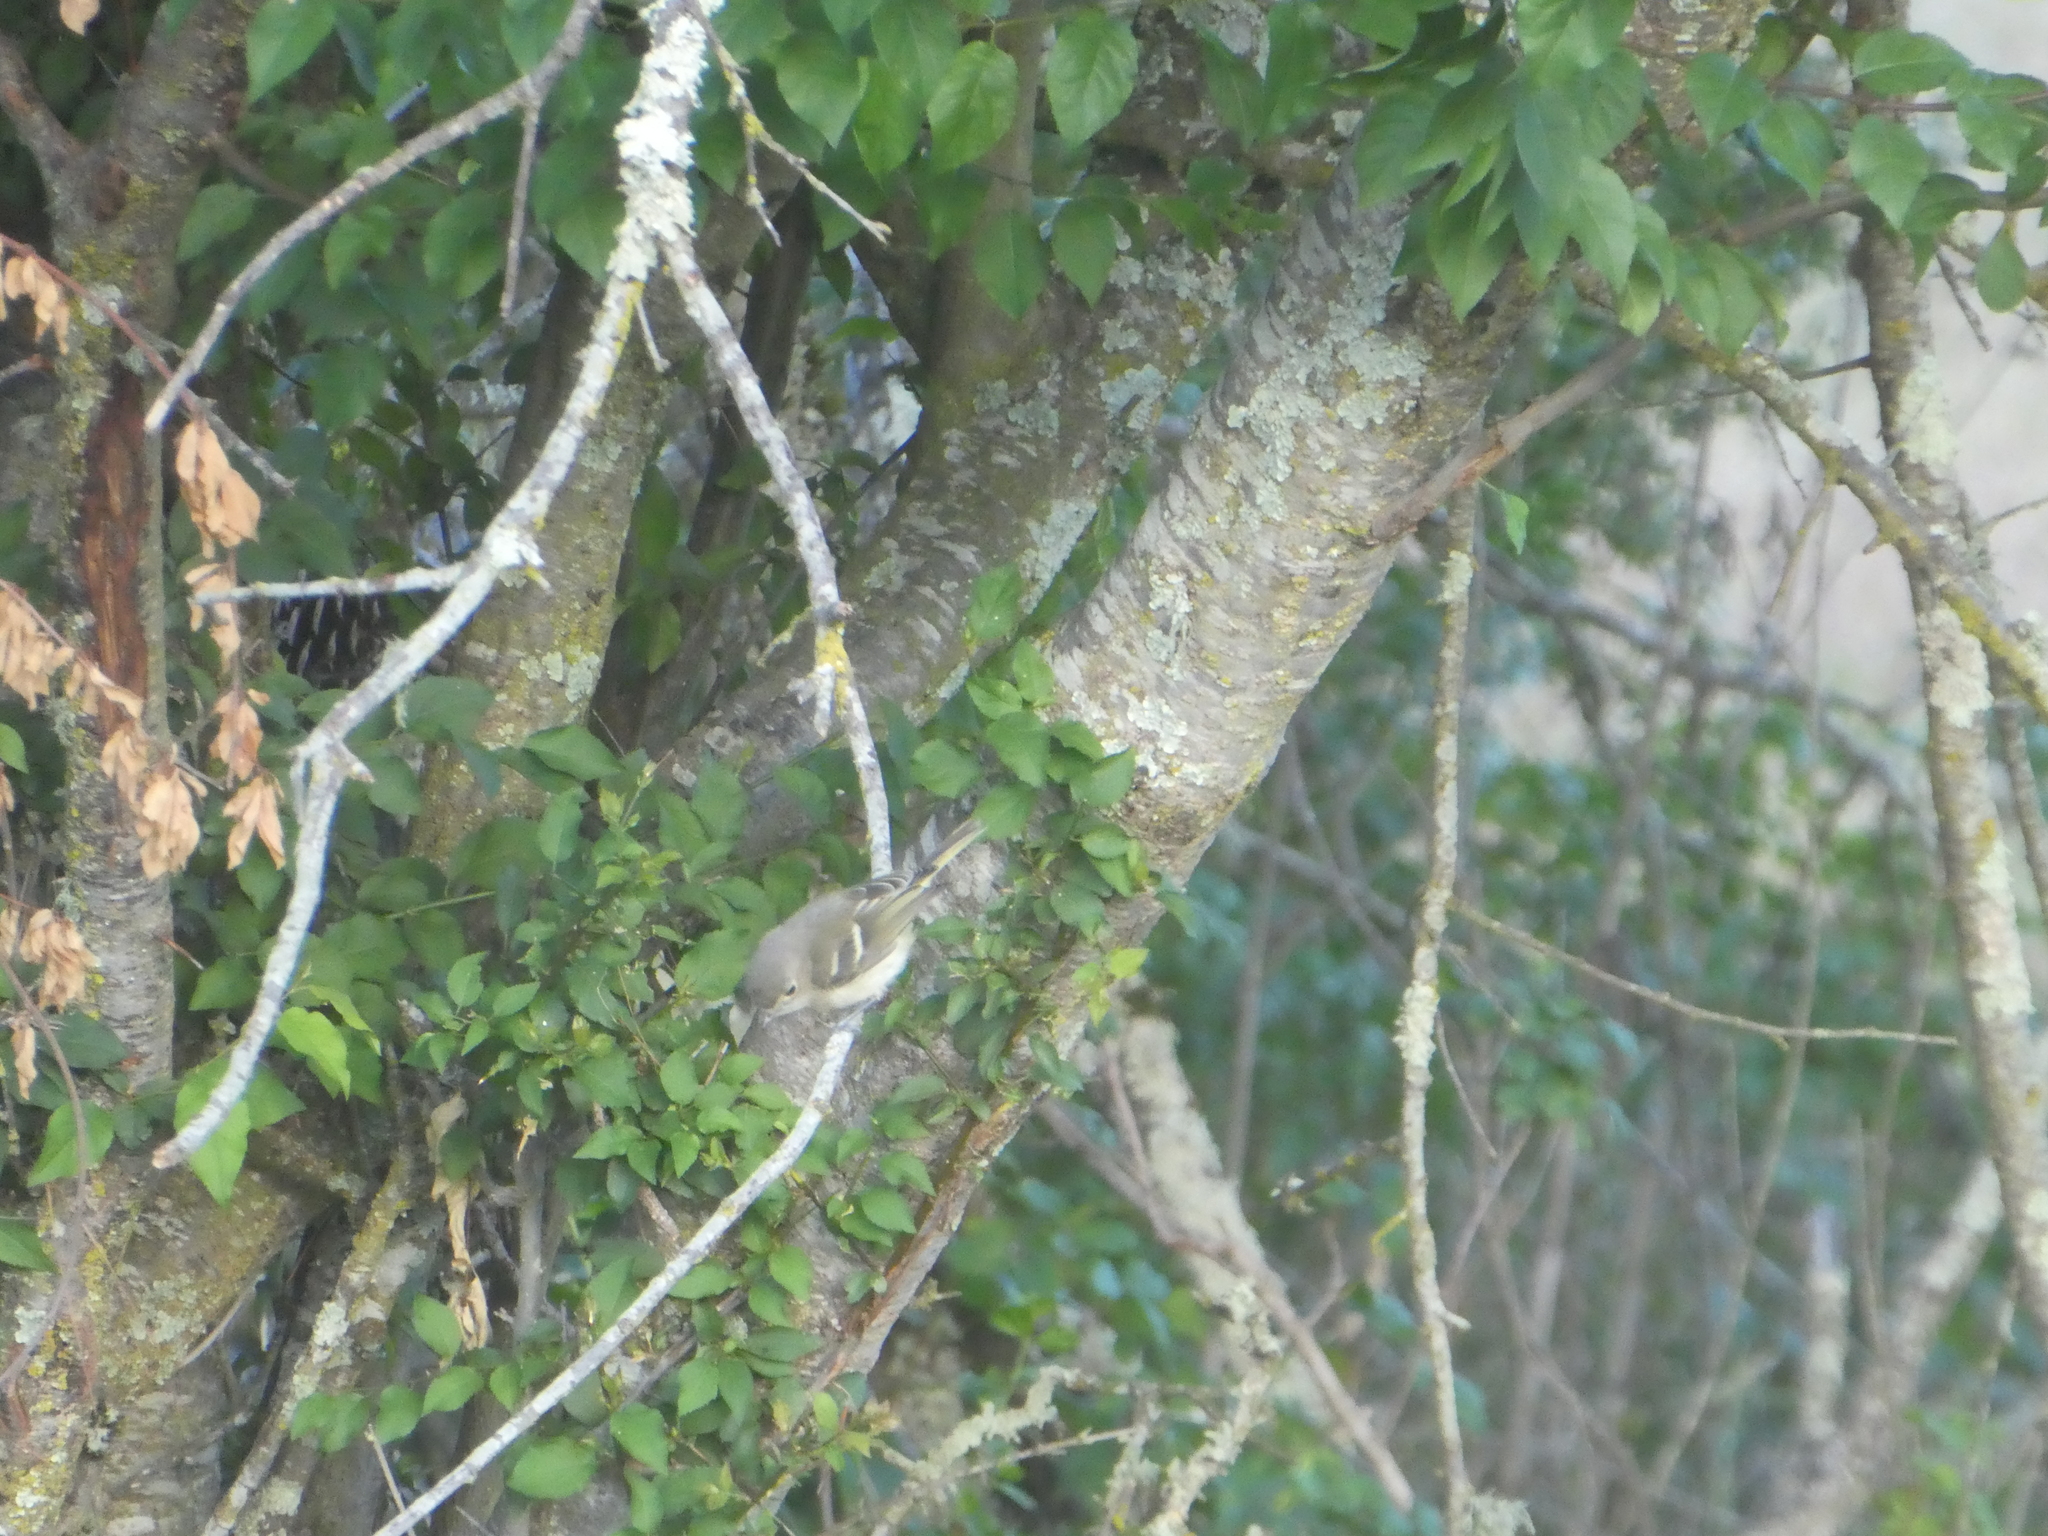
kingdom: Animalia
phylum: Chordata
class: Aves
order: Passeriformes
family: Vireonidae
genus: Vireo
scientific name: Vireo huttoni
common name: Hutton's vireo
